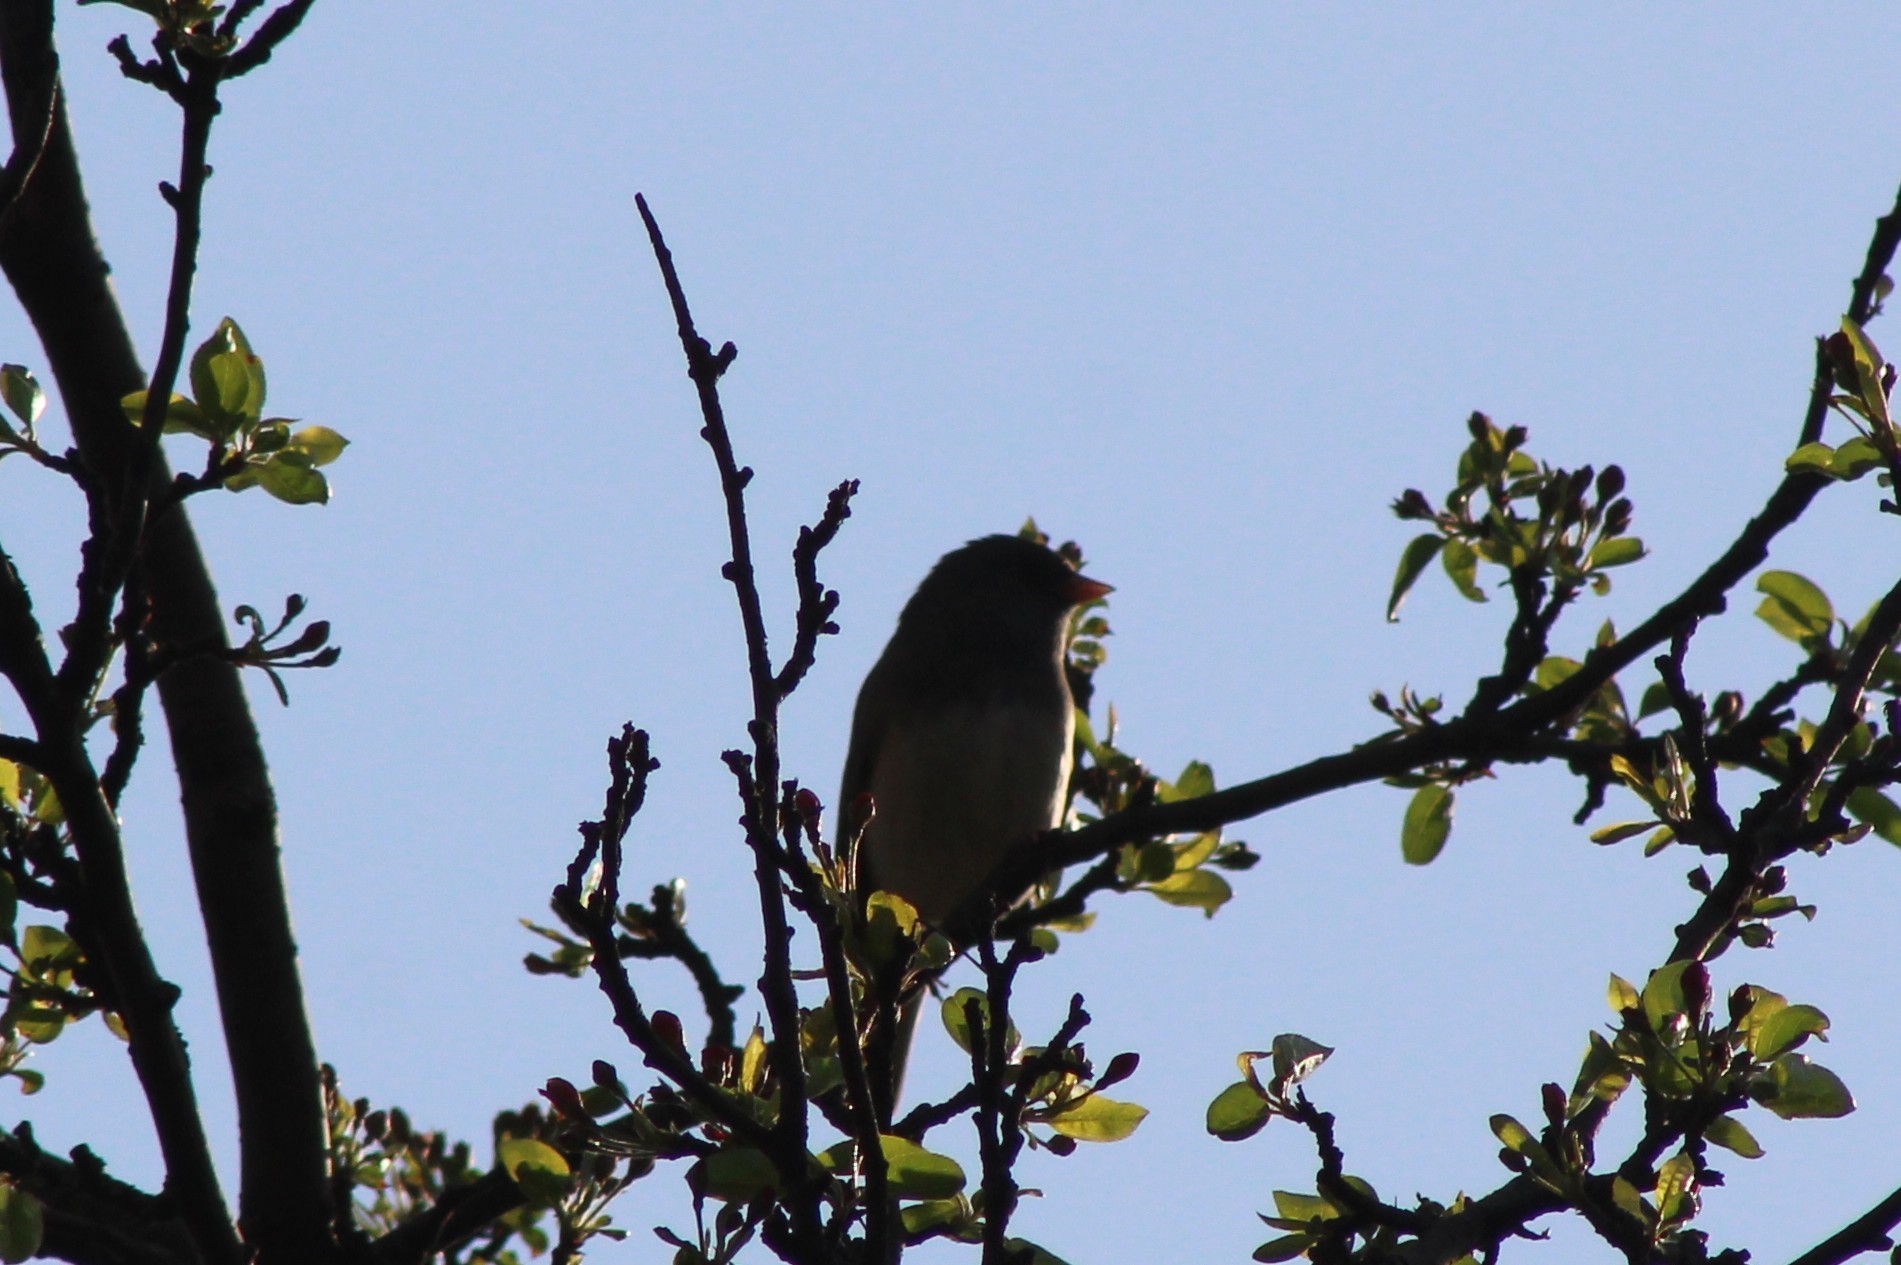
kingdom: Animalia
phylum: Chordata
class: Aves
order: Passeriformes
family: Passerellidae
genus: Junco
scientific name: Junco hyemalis
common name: Dark-eyed junco
